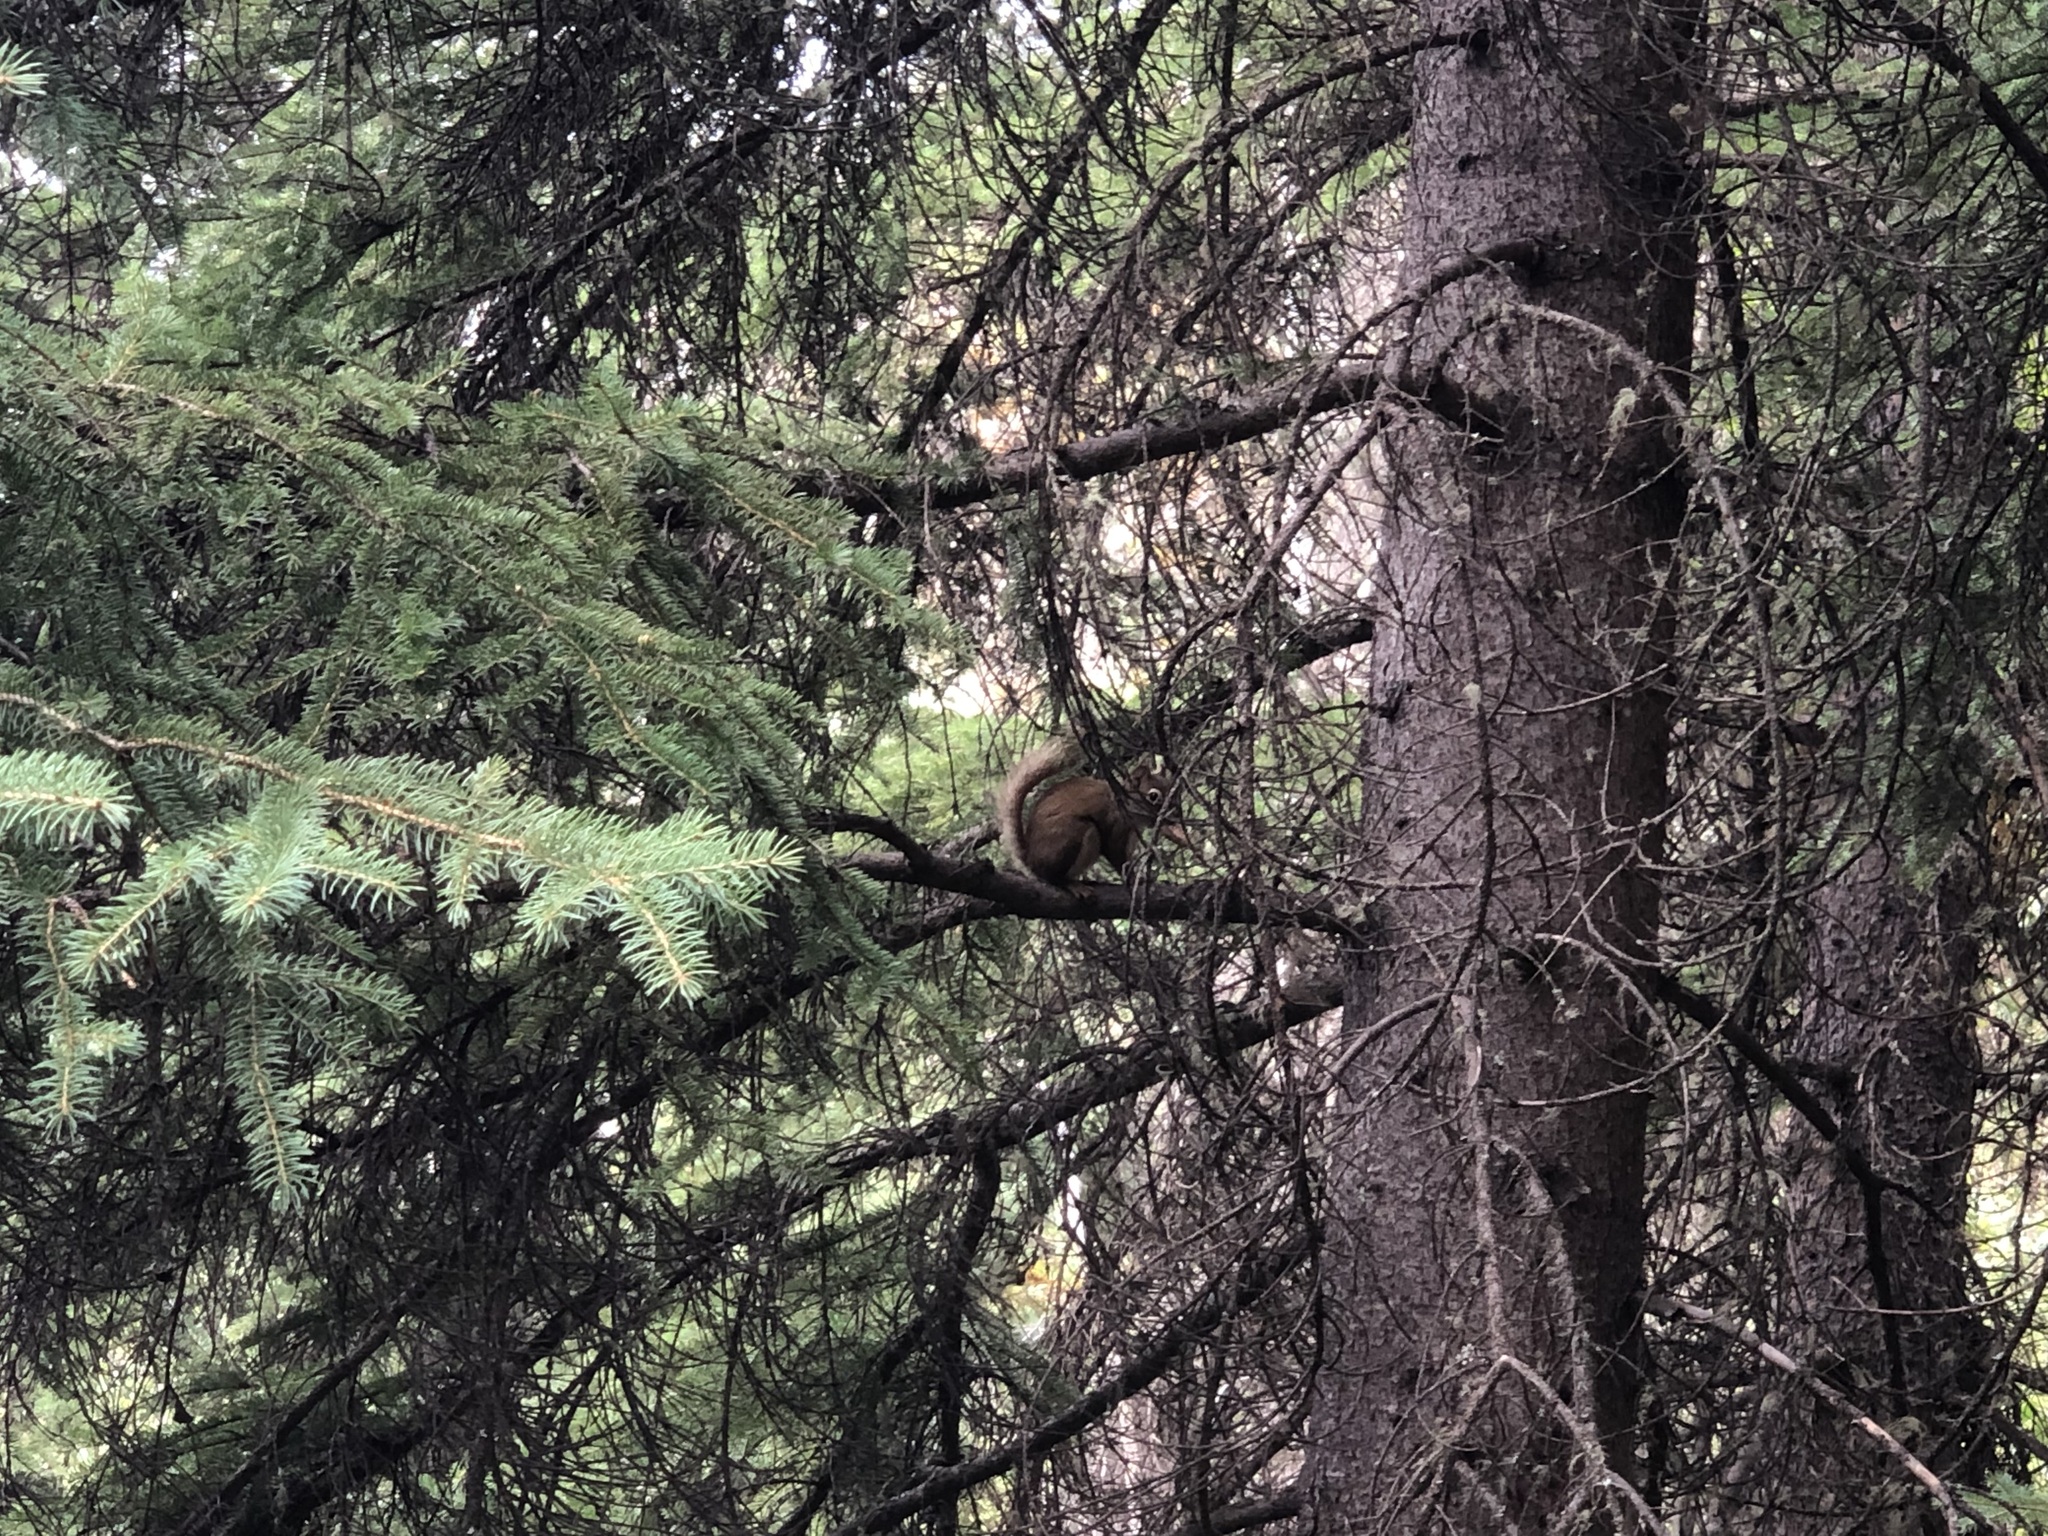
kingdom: Animalia
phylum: Chordata
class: Mammalia
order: Rodentia
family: Sciuridae
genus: Tamiasciurus
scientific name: Tamiasciurus hudsonicus
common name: Red squirrel
